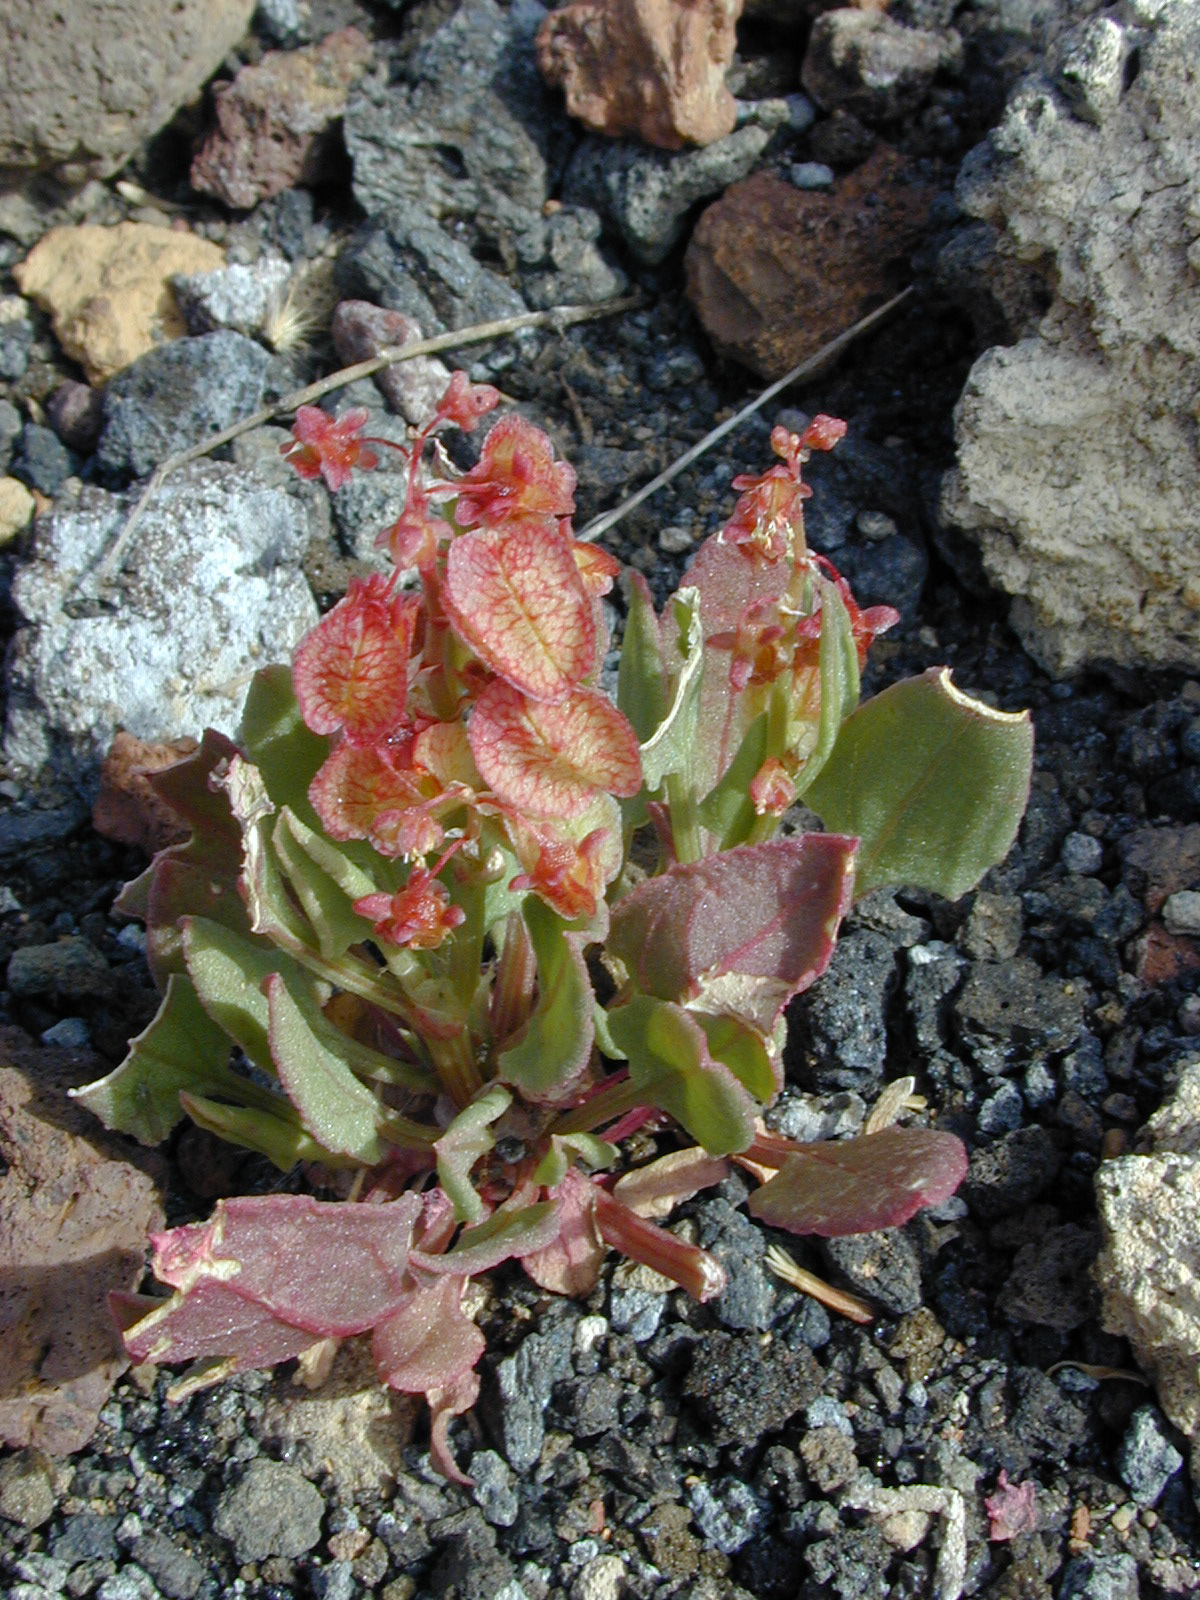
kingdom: Plantae
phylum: Tracheophyta
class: Magnoliopsida
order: Caryophyllales
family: Polygonaceae
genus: Rumex
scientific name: Rumex vesicarius
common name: Bladder dock
